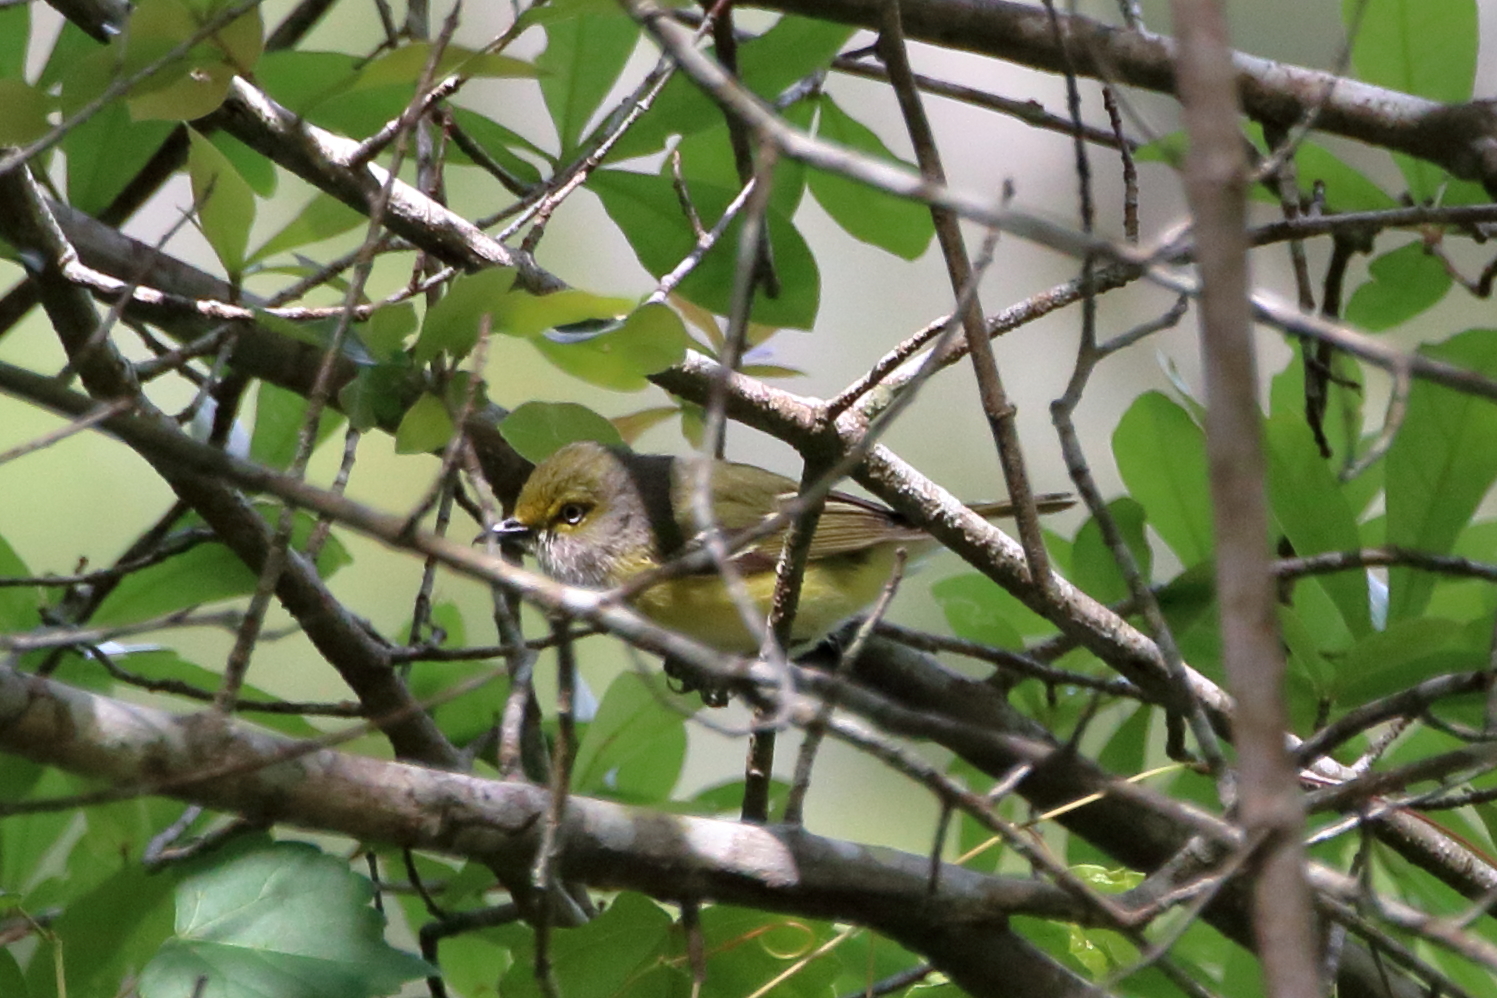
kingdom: Animalia
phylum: Chordata
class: Aves
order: Passeriformes
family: Vireonidae
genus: Vireo
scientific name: Vireo griseus
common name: White-eyed vireo
